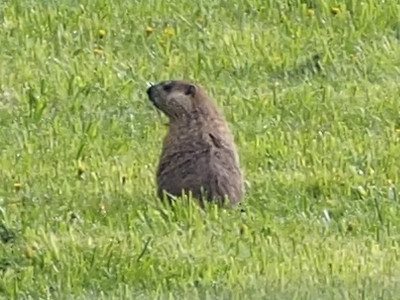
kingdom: Animalia
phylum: Chordata
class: Mammalia
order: Rodentia
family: Sciuridae
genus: Marmota
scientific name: Marmota monax
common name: Groundhog
